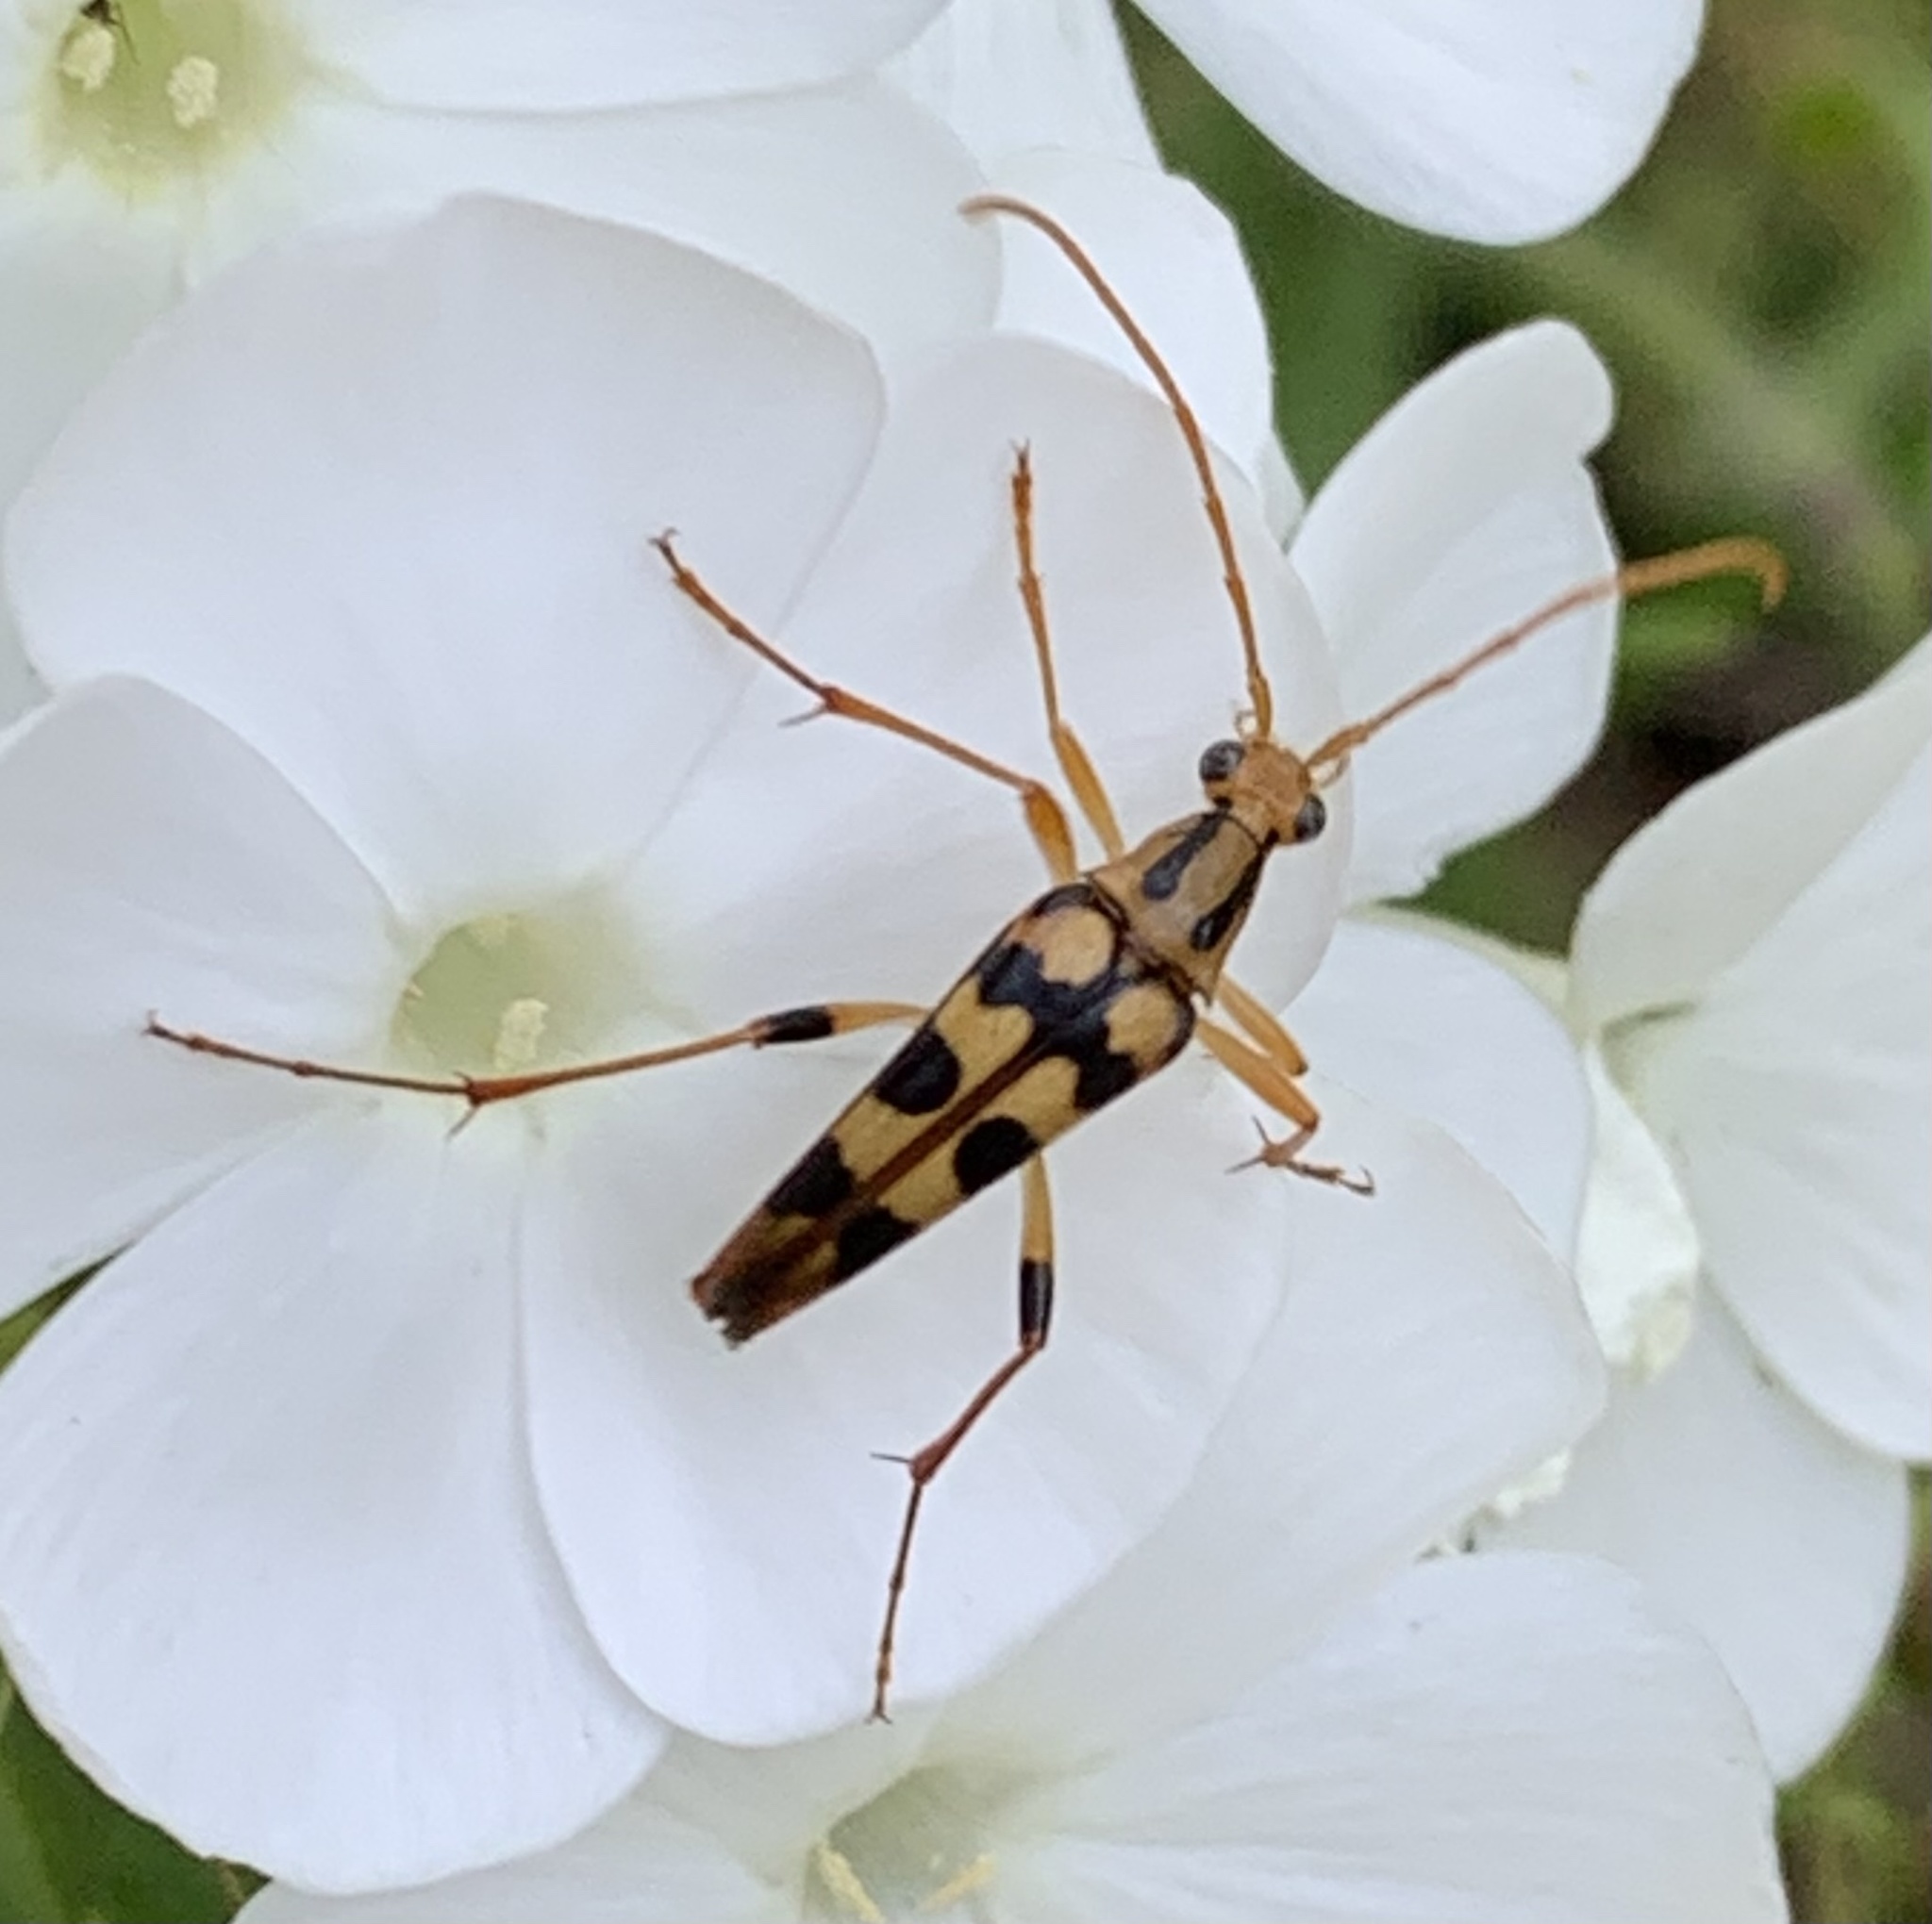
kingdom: Animalia
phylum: Arthropoda
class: Insecta
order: Coleoptera
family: Cerambycidae
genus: Strangalia
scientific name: Strangalia luteicornis
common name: Yellow-horned flower longhorn beetle
